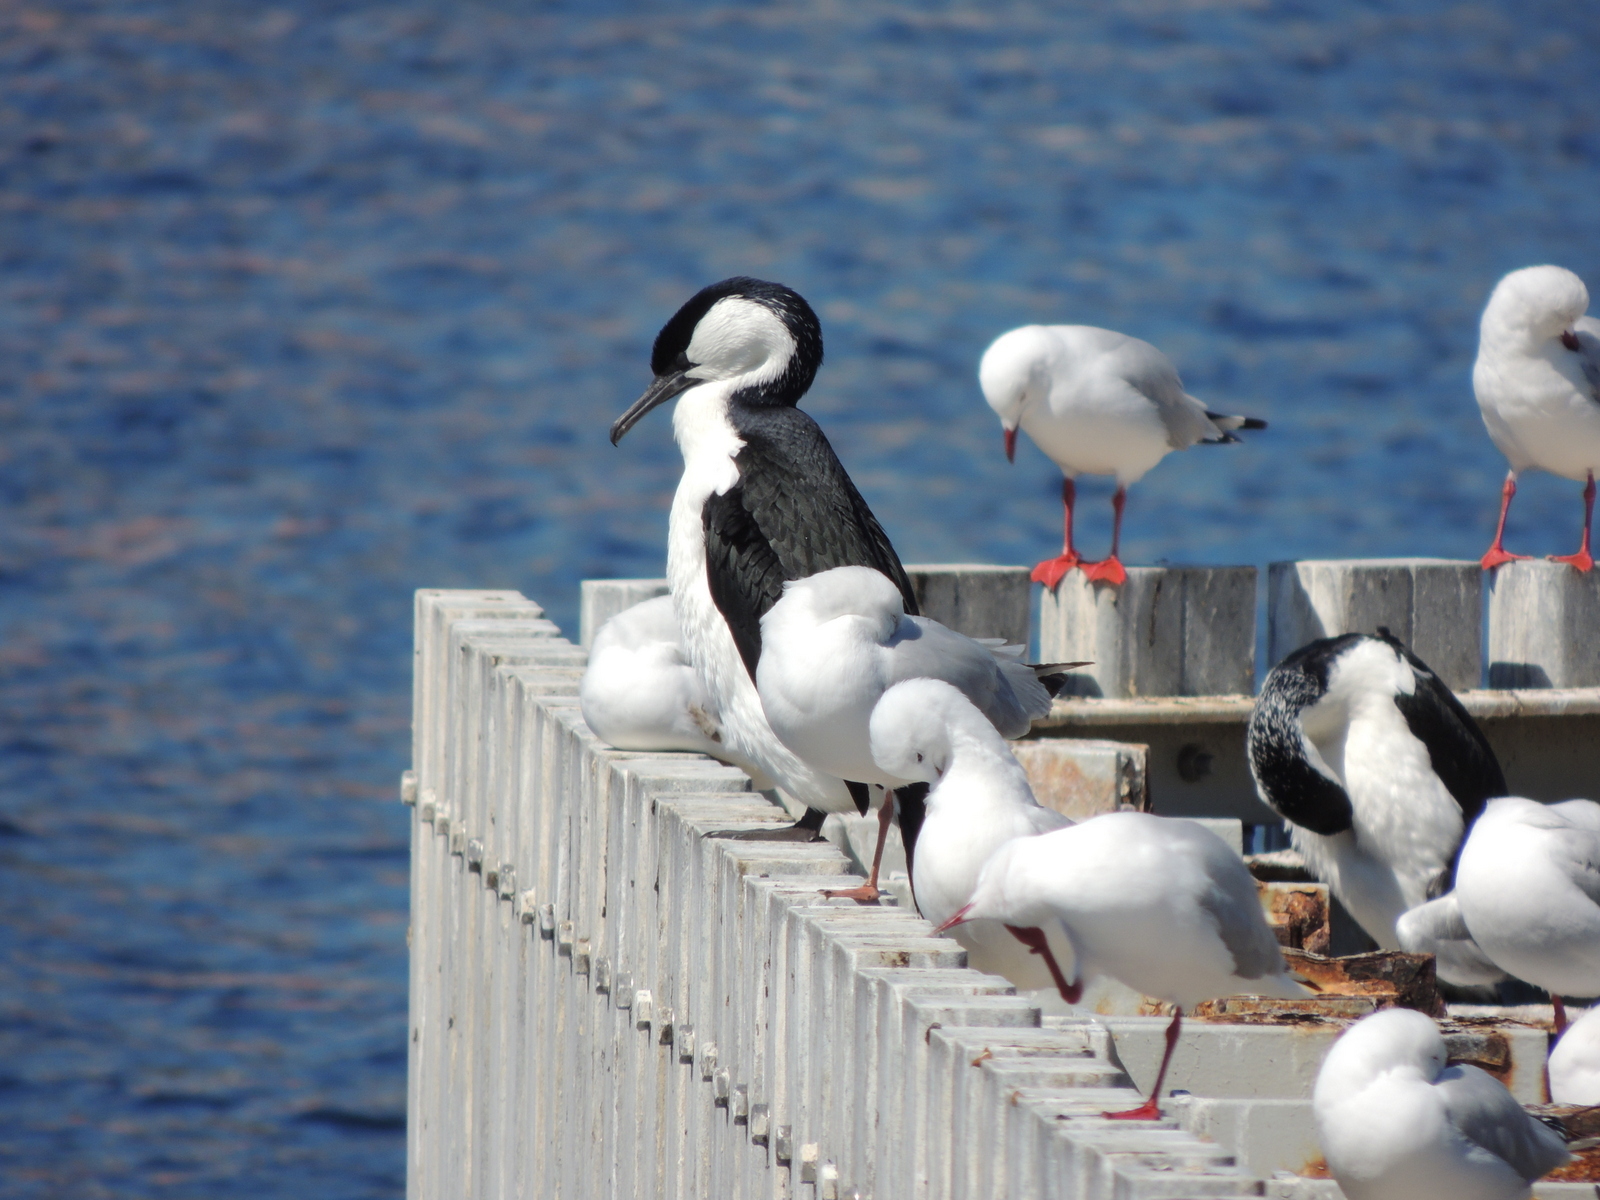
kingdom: Animalia
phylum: Chordata
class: Aves
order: Suliformes
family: Phalacrocoracidae
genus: Phalacrocorax
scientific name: Phalacrocorax fuscescens
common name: Black-faced cormorant
